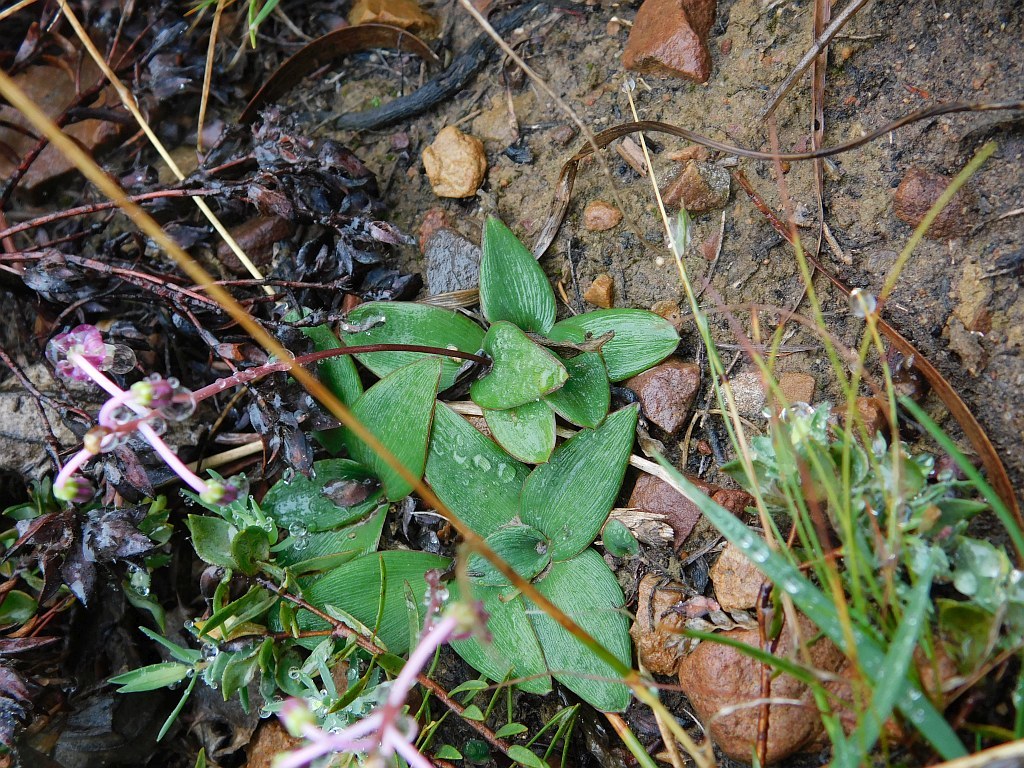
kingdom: Plantae
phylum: Tracheophyta
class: Liliopsida
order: Asparagales
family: Asparagaceae
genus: Ledebouria
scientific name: Ledebouria ovalifolia
